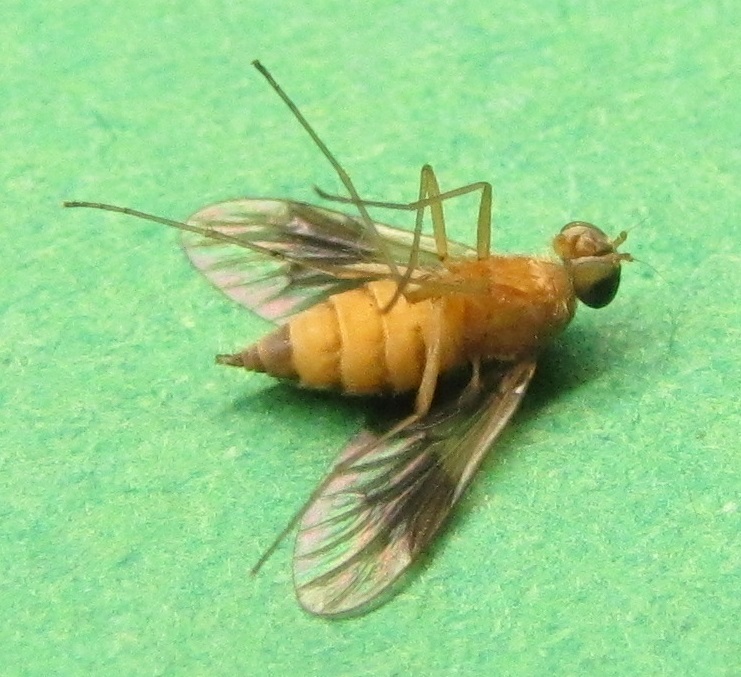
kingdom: Animalia
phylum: Arthropoda
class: Insecta
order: Diptera
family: Rhagionidae
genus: Chrysopilus
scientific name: Chrysopilus quadratus
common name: Quadrate snipe fly
